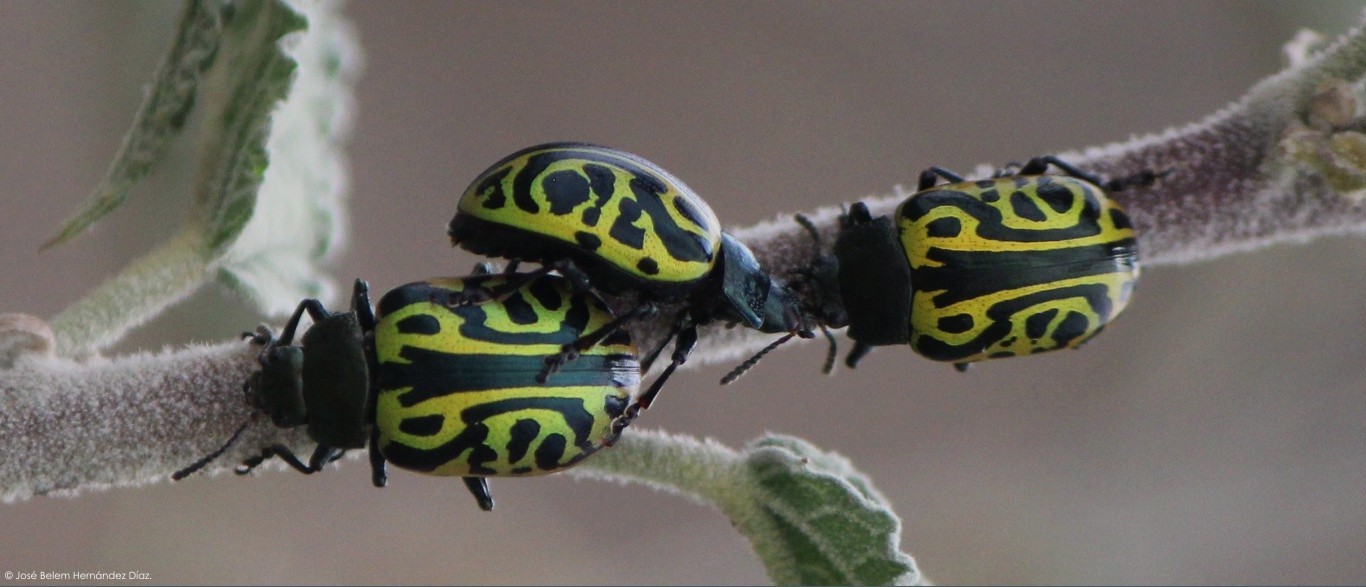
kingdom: Animalia
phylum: Arthropoda
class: Insecta
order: Coleoptera
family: Chrysomelidae
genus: Calligrapha
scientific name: Calligrapha mexicana
